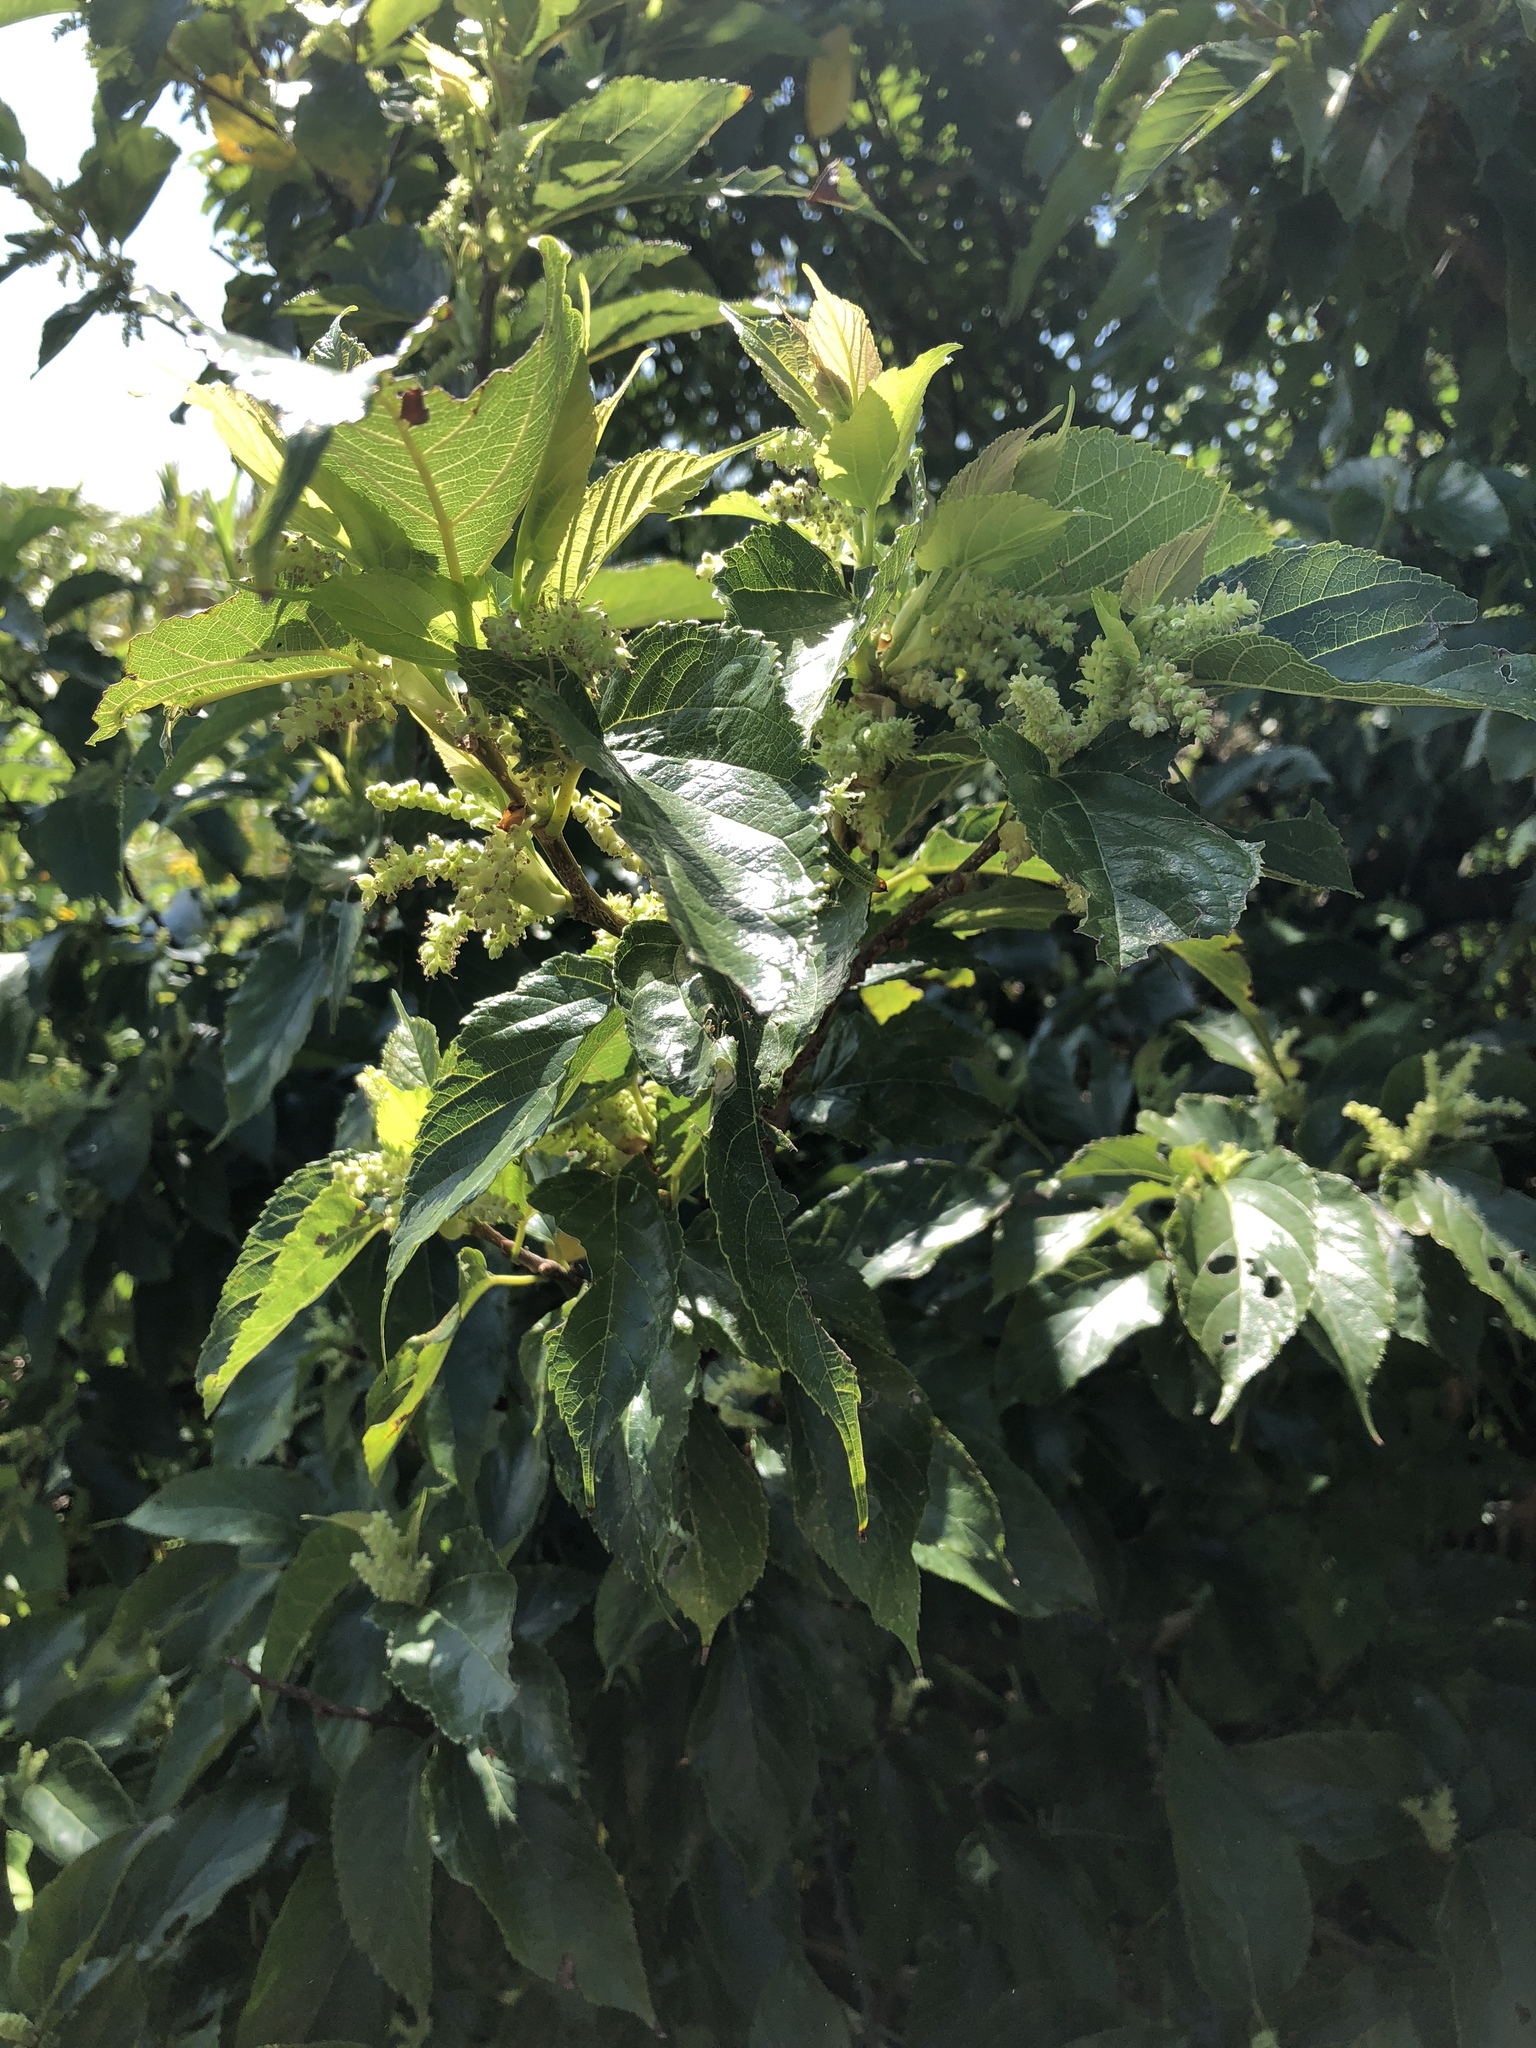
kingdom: Plantae
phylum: Tracheophyta
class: Magnoliopsida
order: Rosales
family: Moraceae
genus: Morus
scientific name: Morus indica
